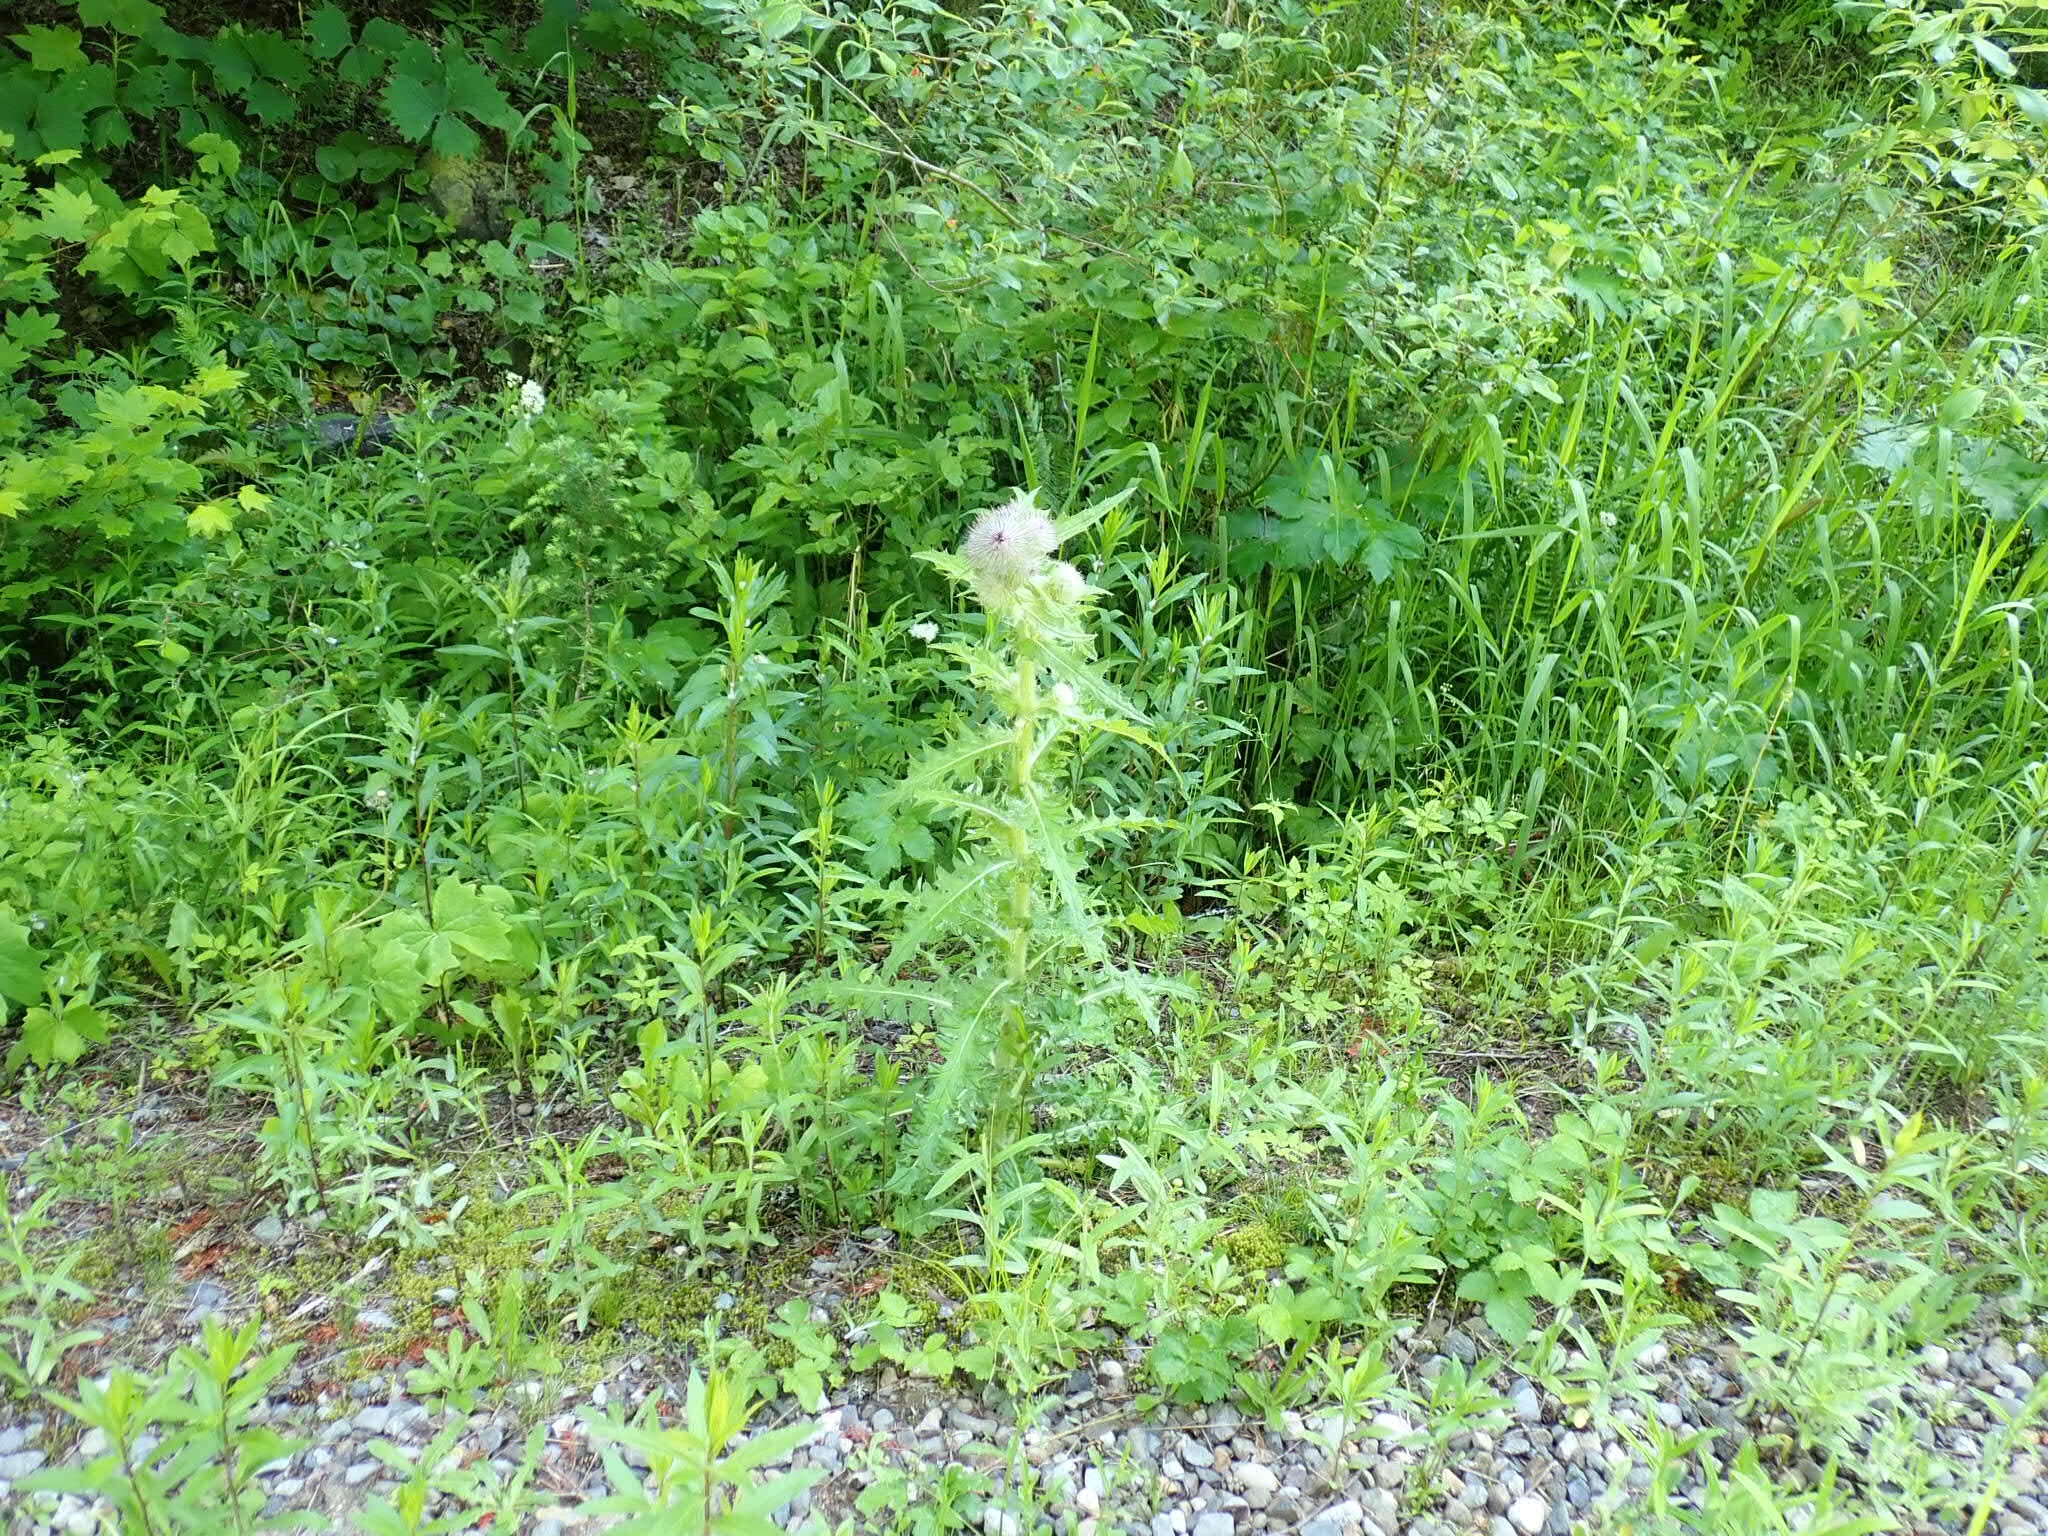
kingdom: Plantae
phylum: Tracheophyta
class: Magnoliopsida
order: Asterales
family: Asteraceae
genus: Cirsium
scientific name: Cirsium edule
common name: Indian thistle
